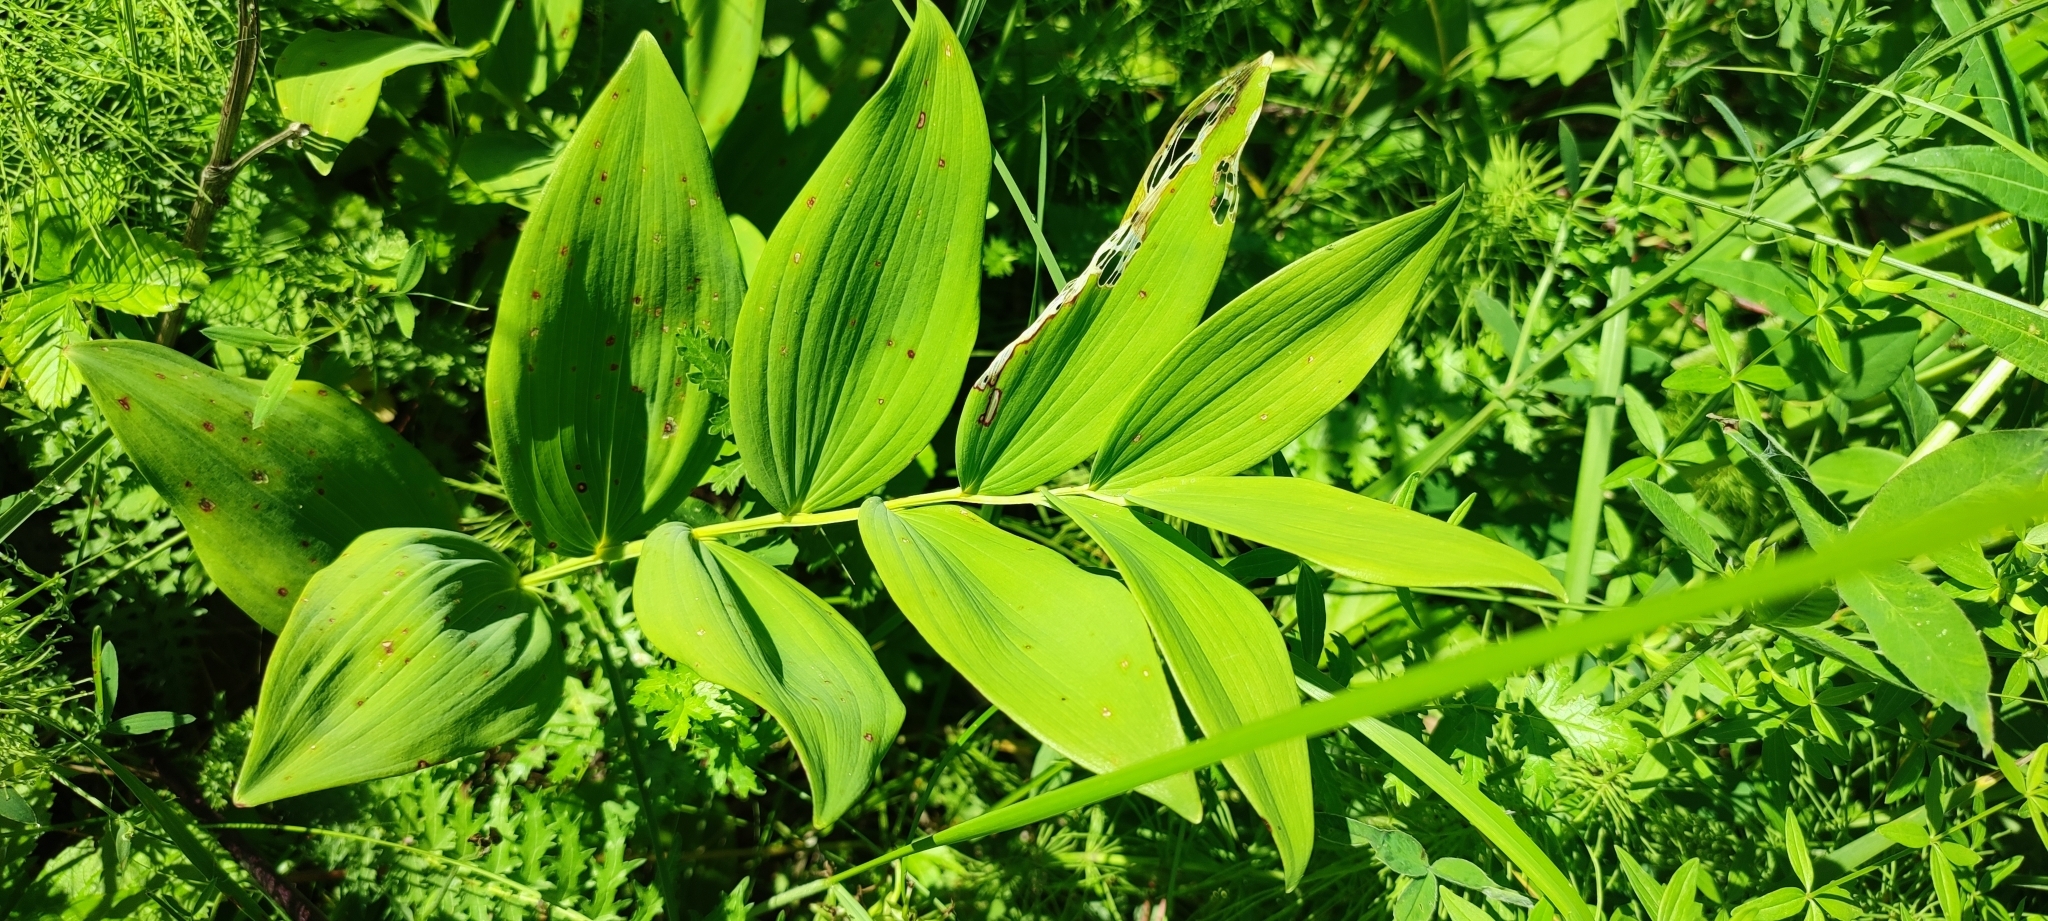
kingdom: Plantae
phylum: Tracheophyta
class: Liliopsida
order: Asparagales
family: Asparagaceae
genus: Polygonatum
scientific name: Polygonatum odoratum
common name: Angular solomon's-seal
